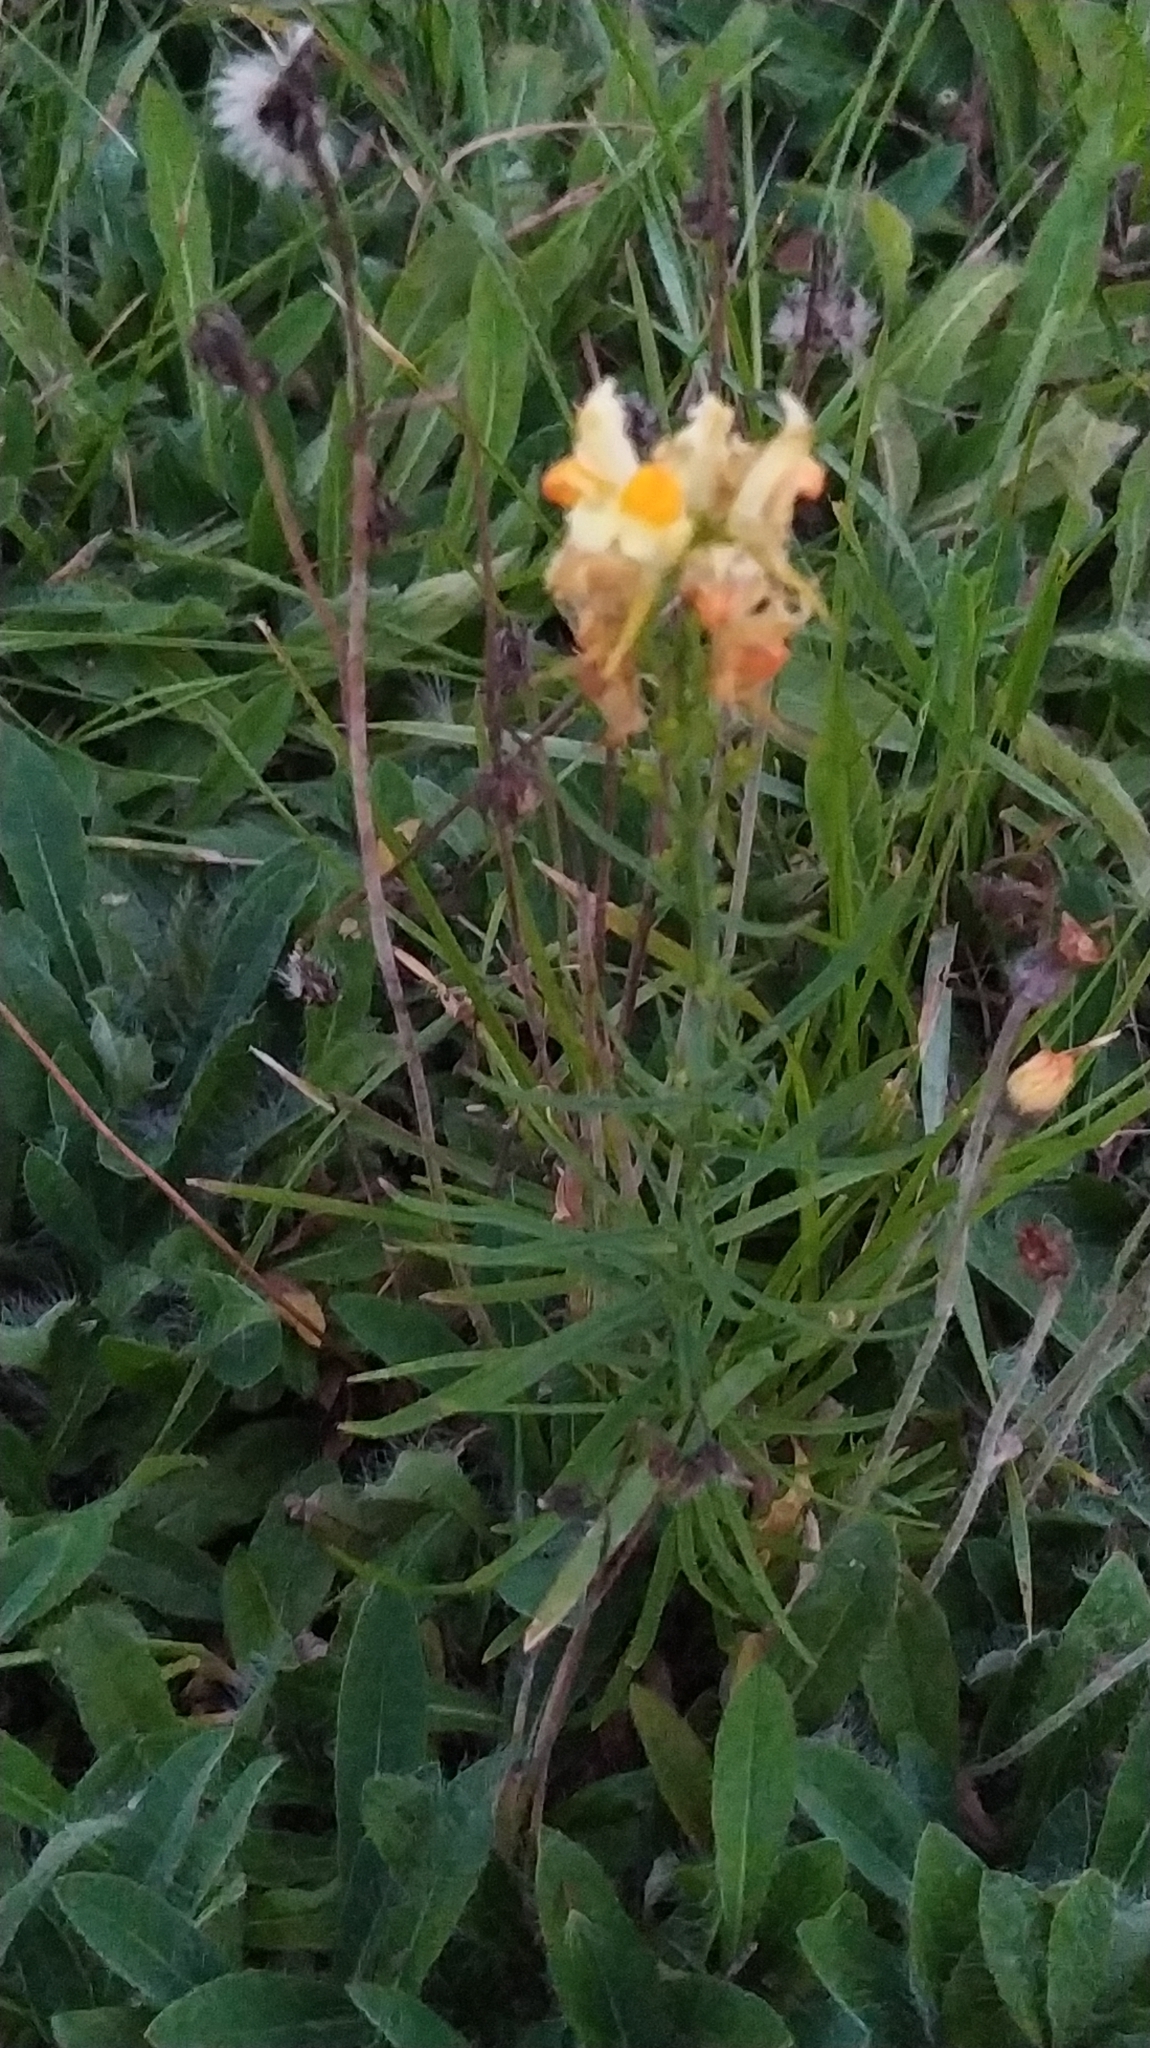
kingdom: Plantae
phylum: Tracheophyta
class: Magnoliopsida
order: Lamiales
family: Plantaginaceae
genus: Linaria
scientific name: Linaria vulgaris
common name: Butter and eggs
